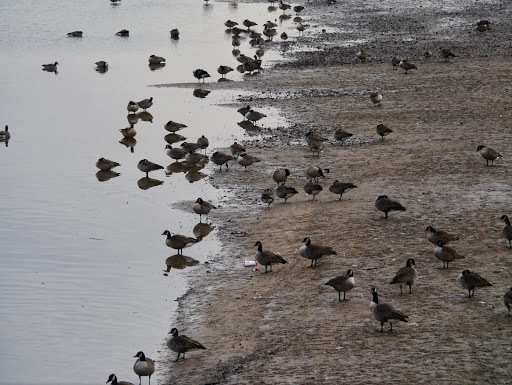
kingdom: Animalia
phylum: Chordata
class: Aves
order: Anseriformes
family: Anatidae
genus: Branta
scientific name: Branta canadensis
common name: Canada goose
